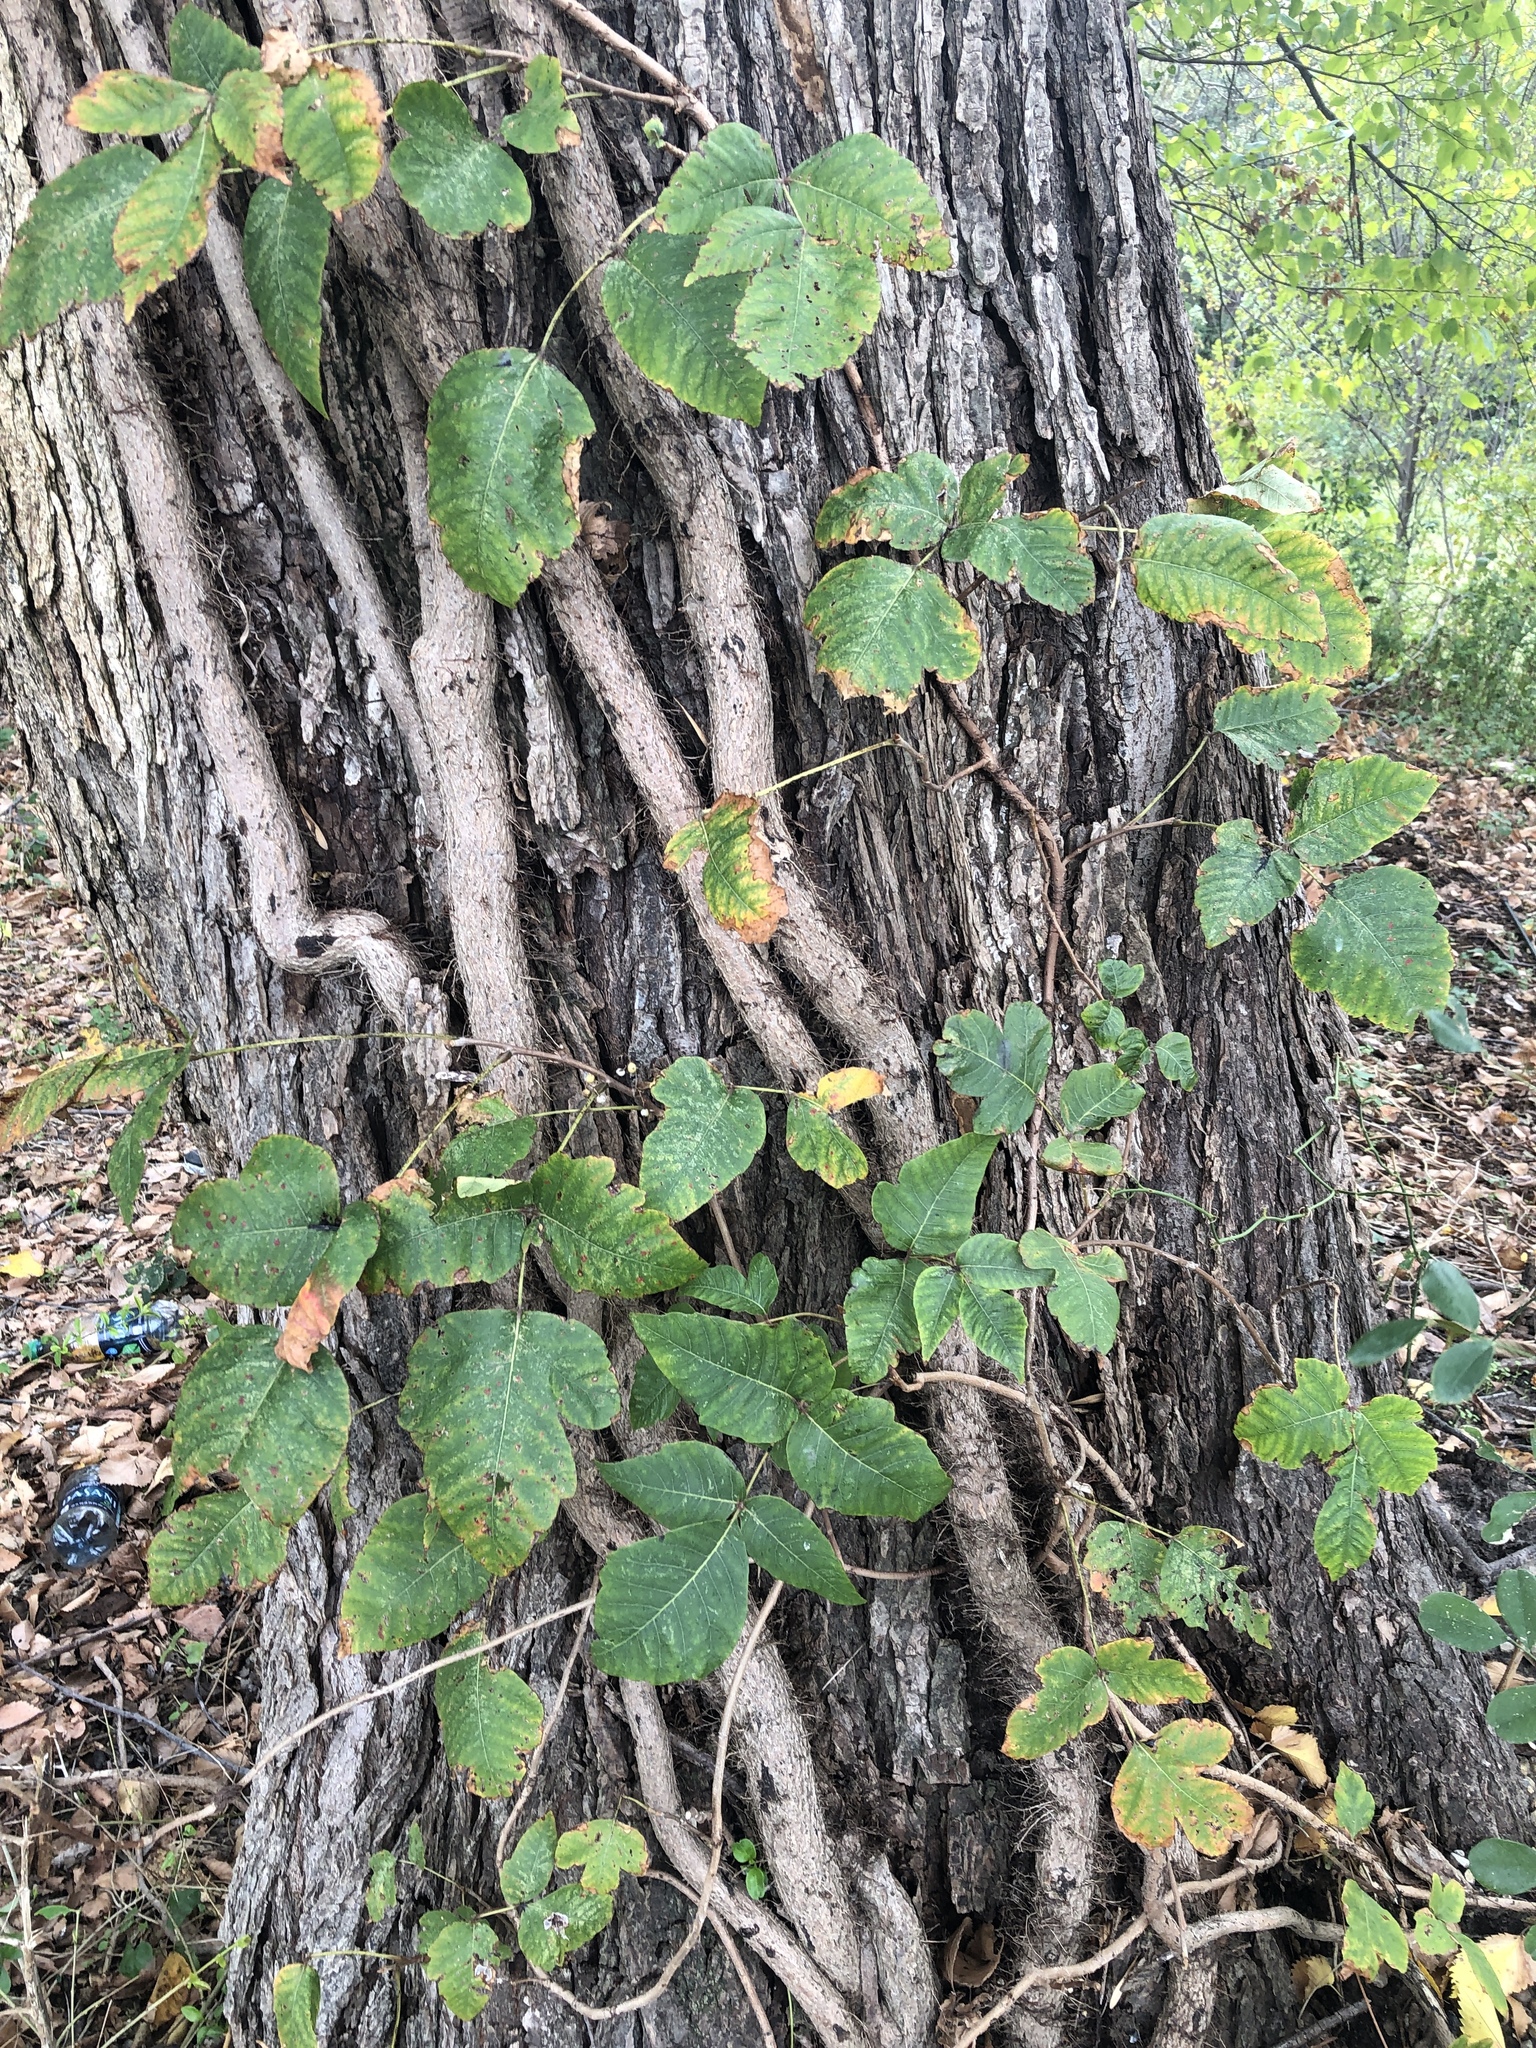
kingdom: Plantae
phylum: Tracheophyta
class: Magnoliopsida
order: Sapindales
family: Anacardiaceae
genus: Toxicodendron
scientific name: Toxicodendron radicans
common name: Poison ivy
